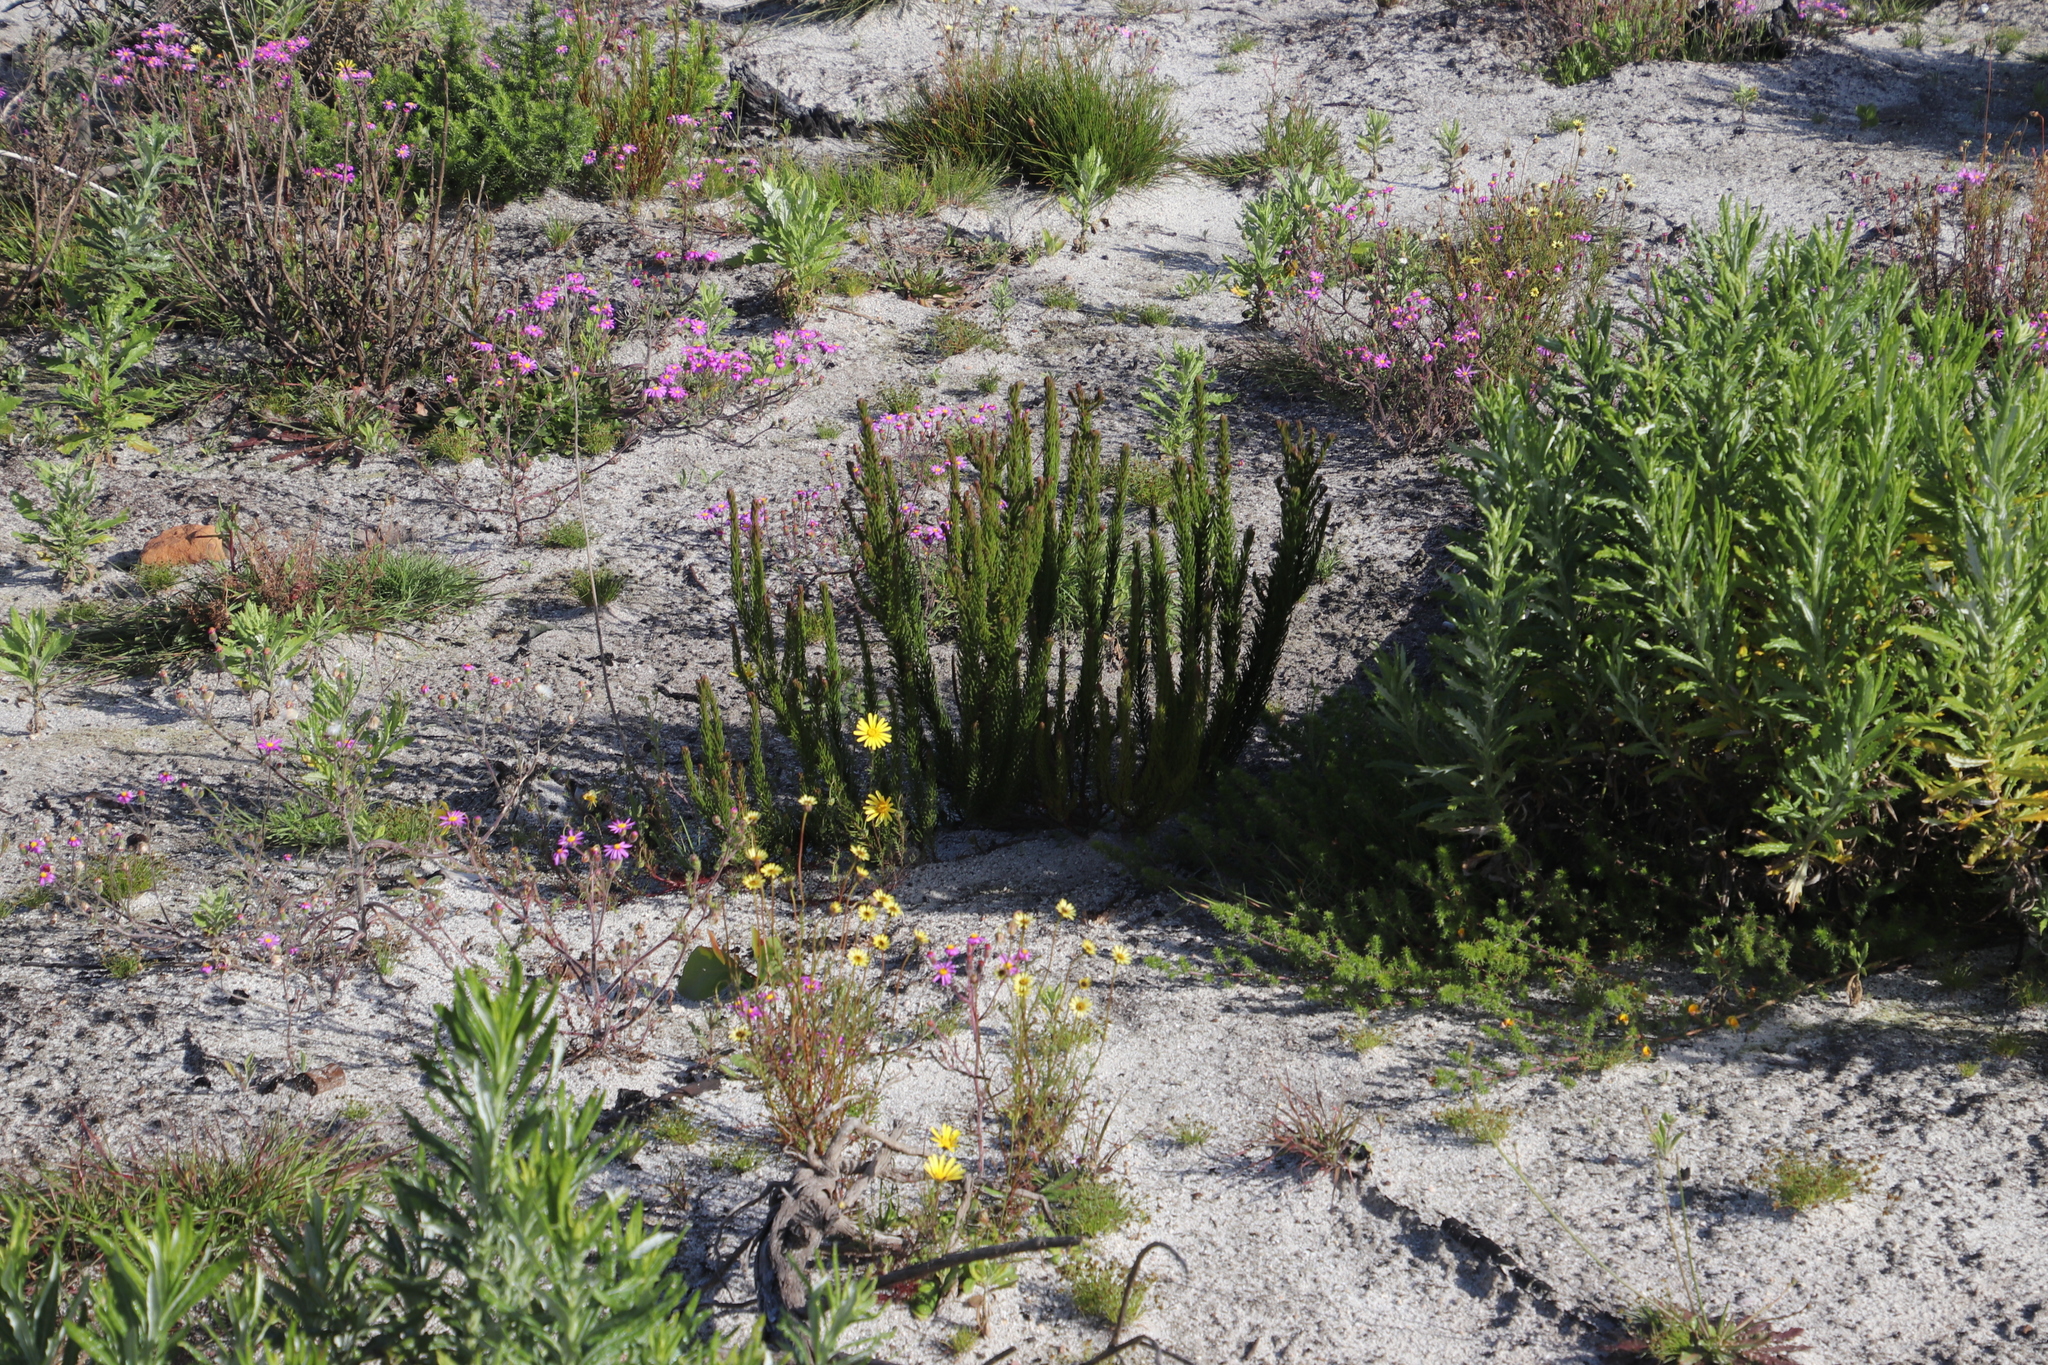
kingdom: Plantae
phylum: Tracheophyta
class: Magnoliopsida
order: Lamiales
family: Scrophulariaceae
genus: Pseudoselago
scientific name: Pseudoselago spuria
